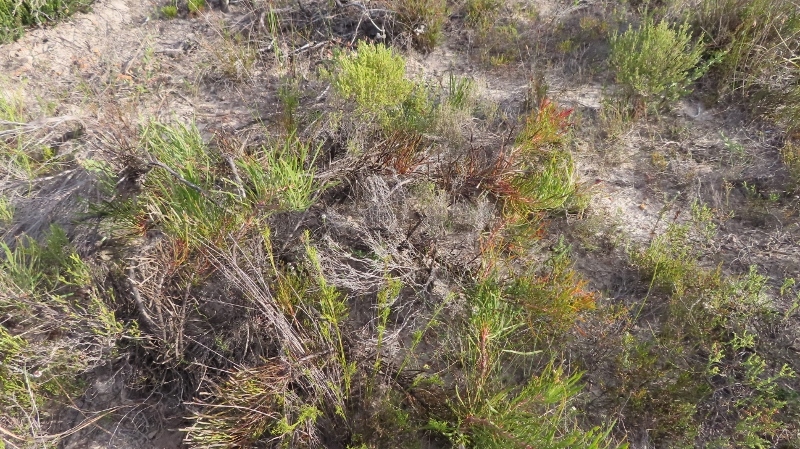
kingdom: Plantae
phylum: Tracheophyta
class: Magnoliopsida
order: Proteales
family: Proteaceae
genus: Protea
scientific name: Protea pudens
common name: Bashful sugarbush
